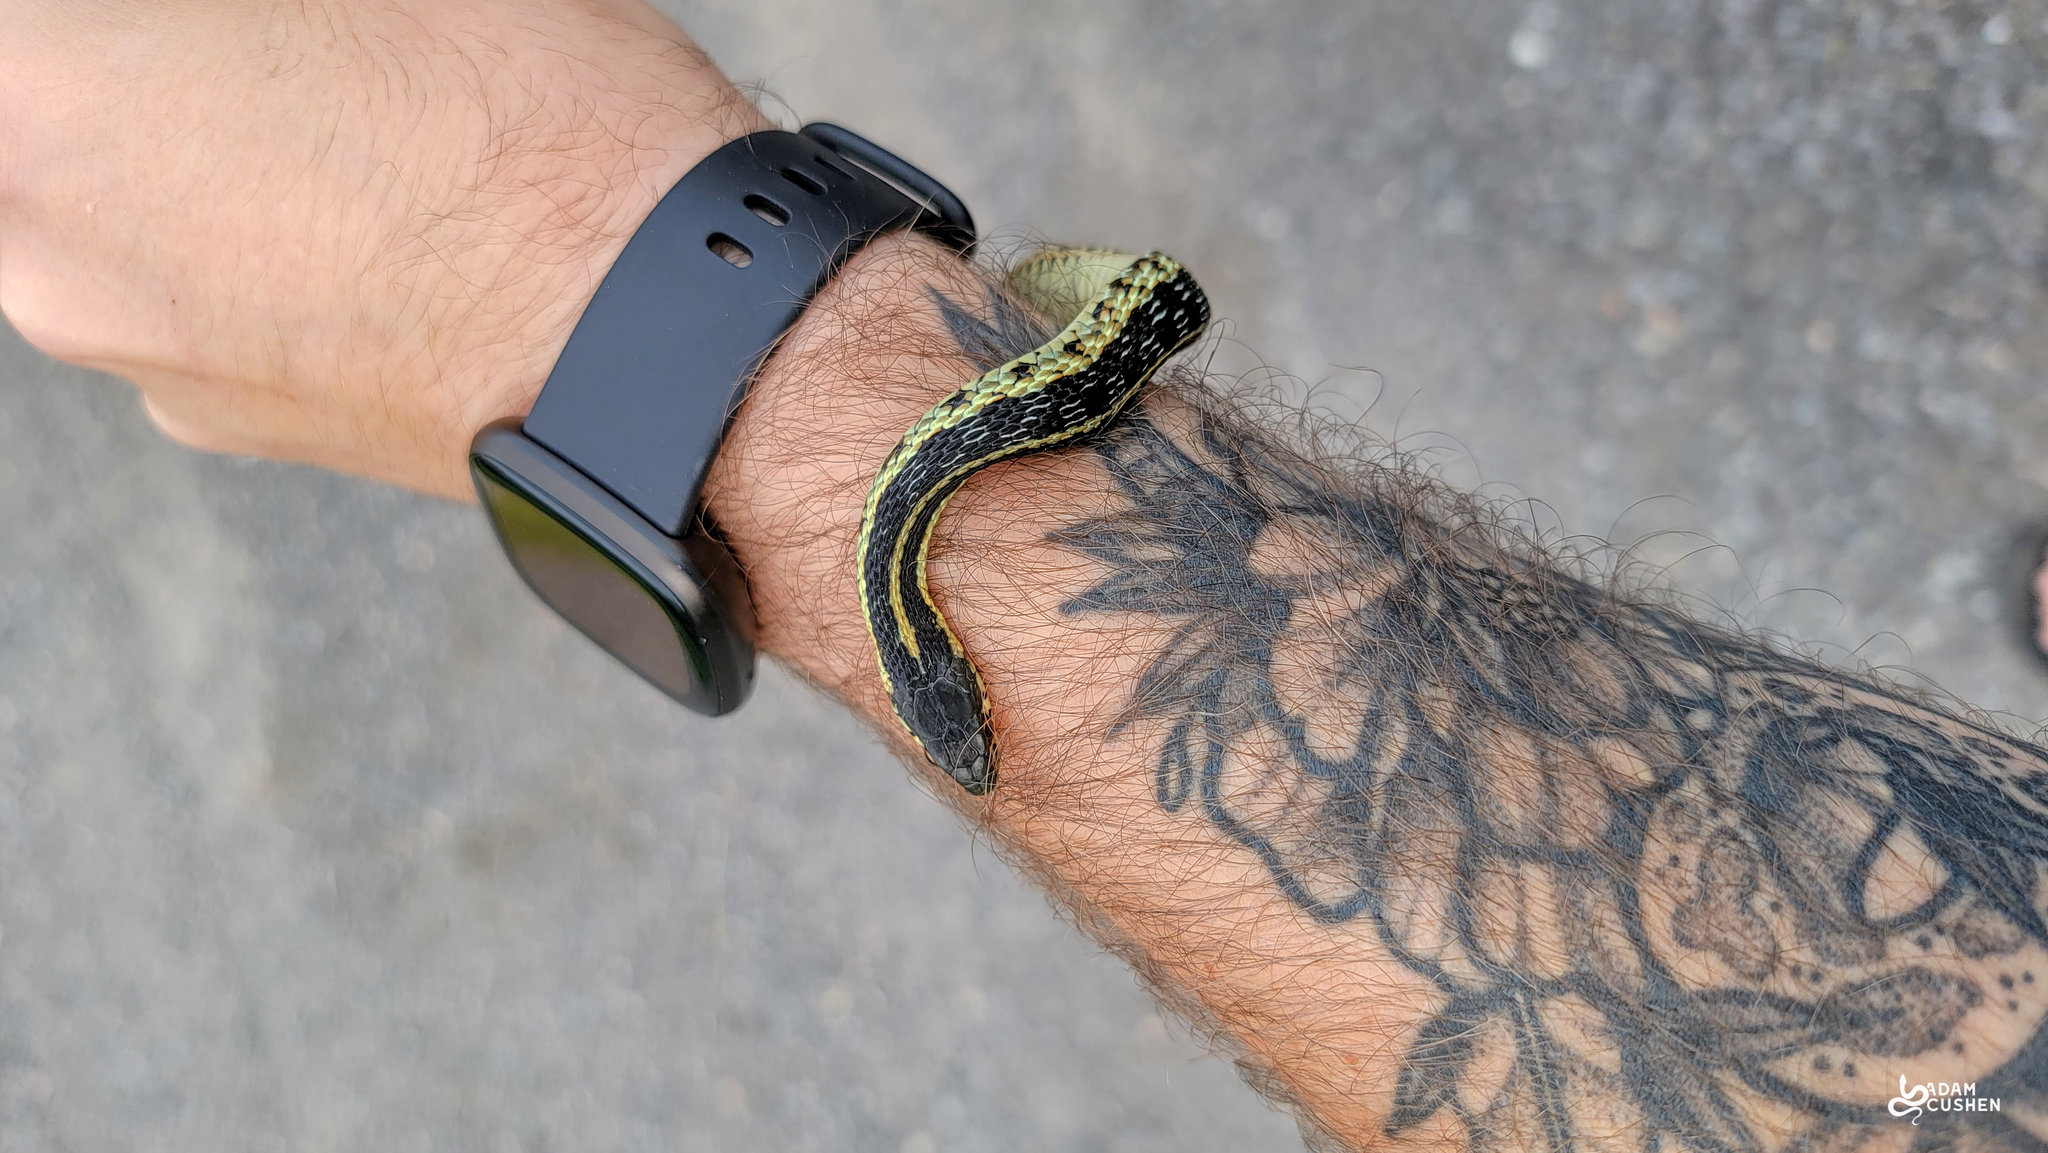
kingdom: Animalia
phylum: Chordata
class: Squamata
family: Colubridae
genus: Thamnophis
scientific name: Thamnophis sirtalis
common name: Common garter snake
